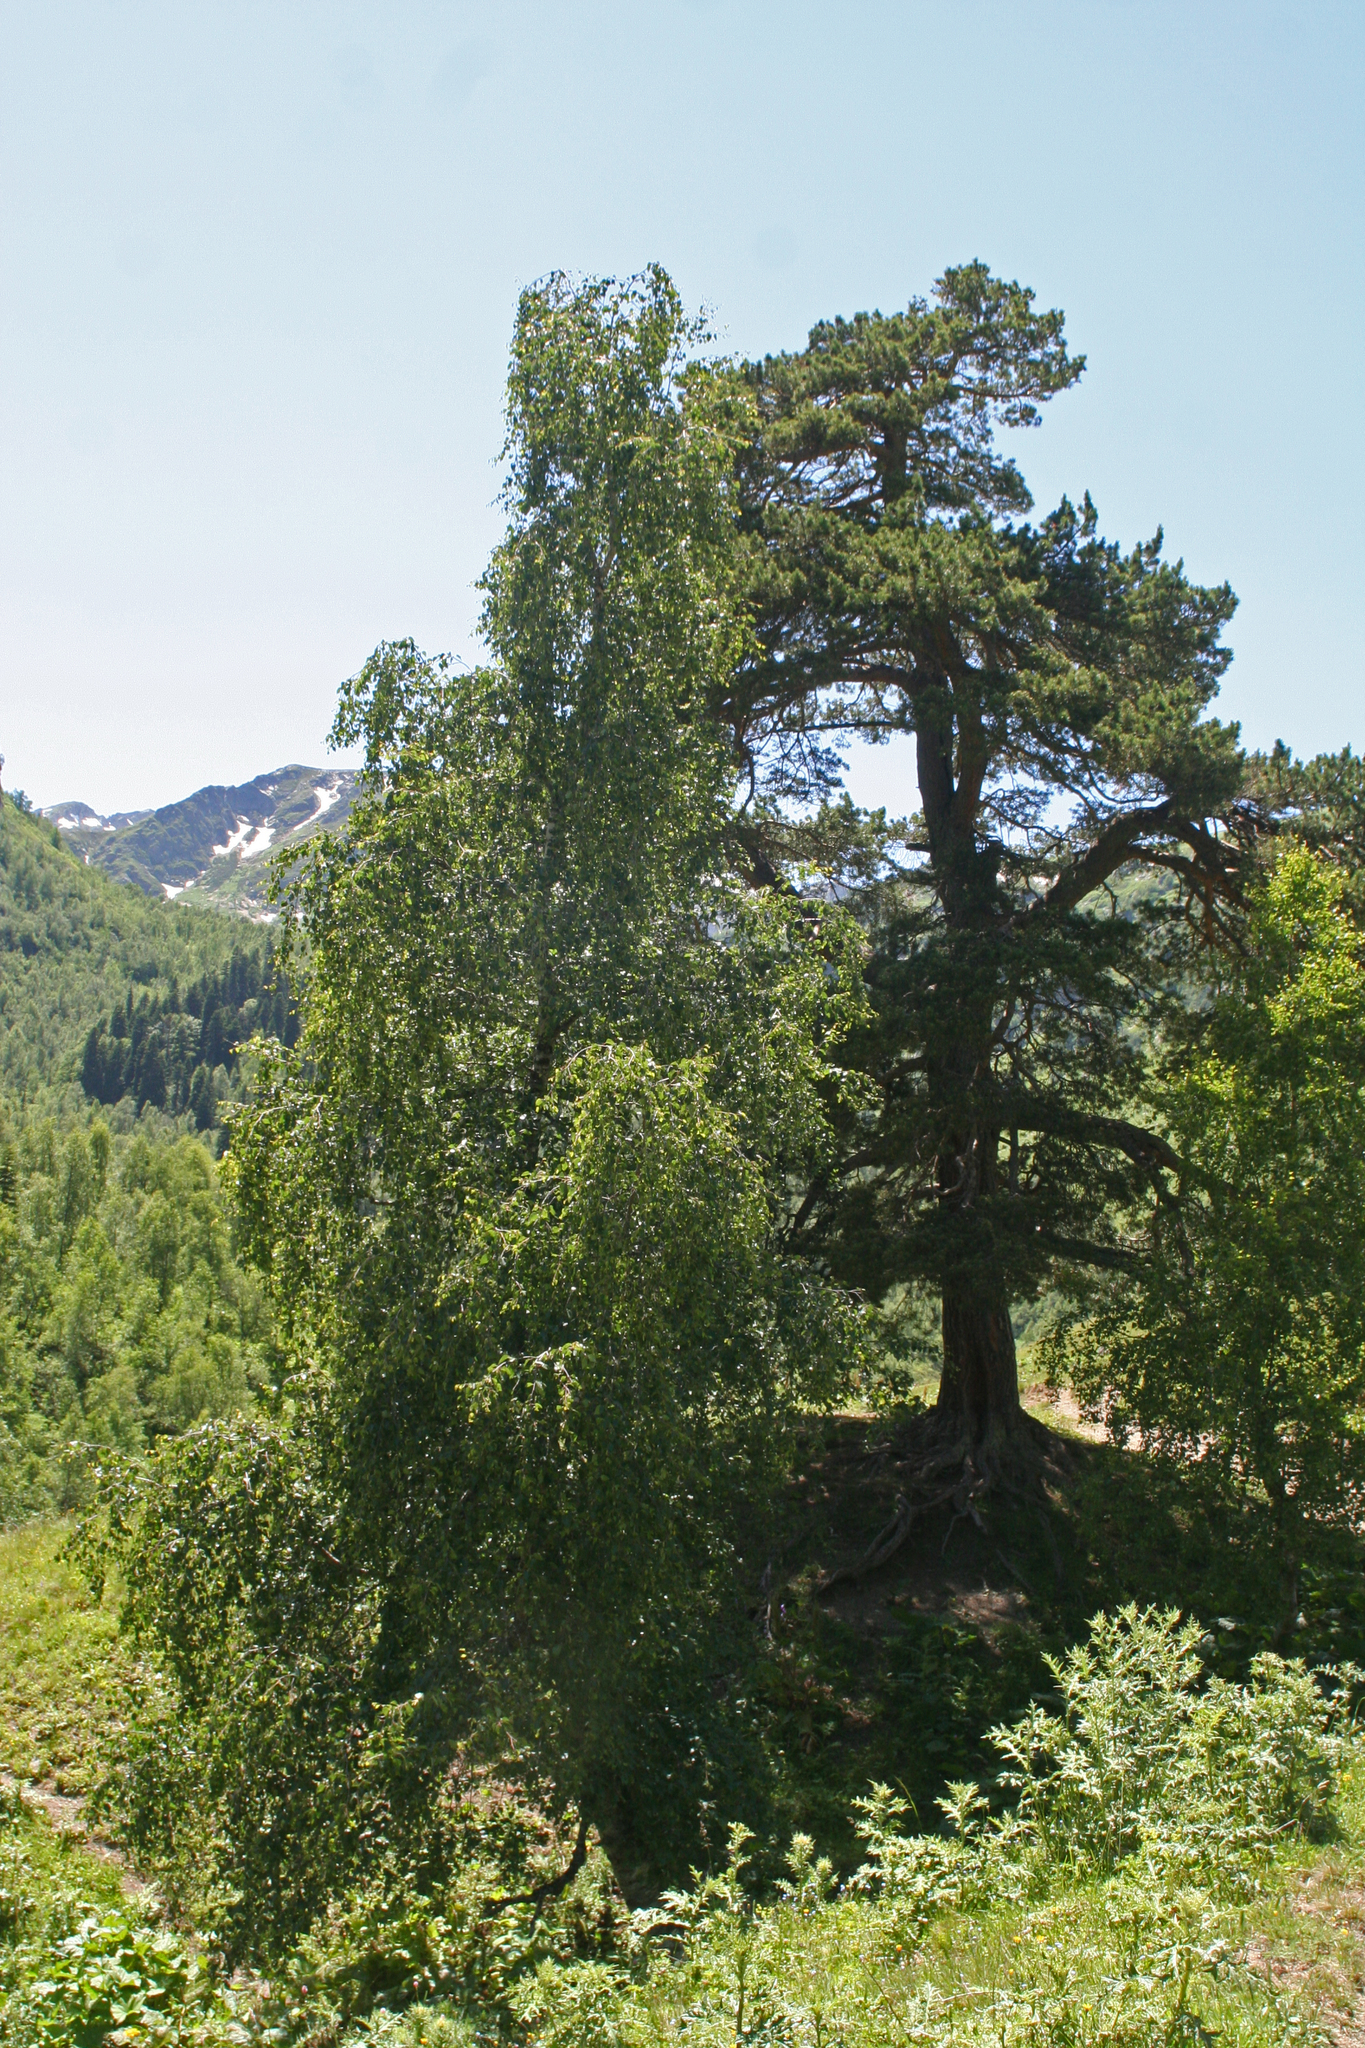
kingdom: Plantae
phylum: Tracheophyta
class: Pinopsida
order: Pinales
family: Pinaceae
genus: Pinus
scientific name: Pinus sylvestris
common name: Scots pine
